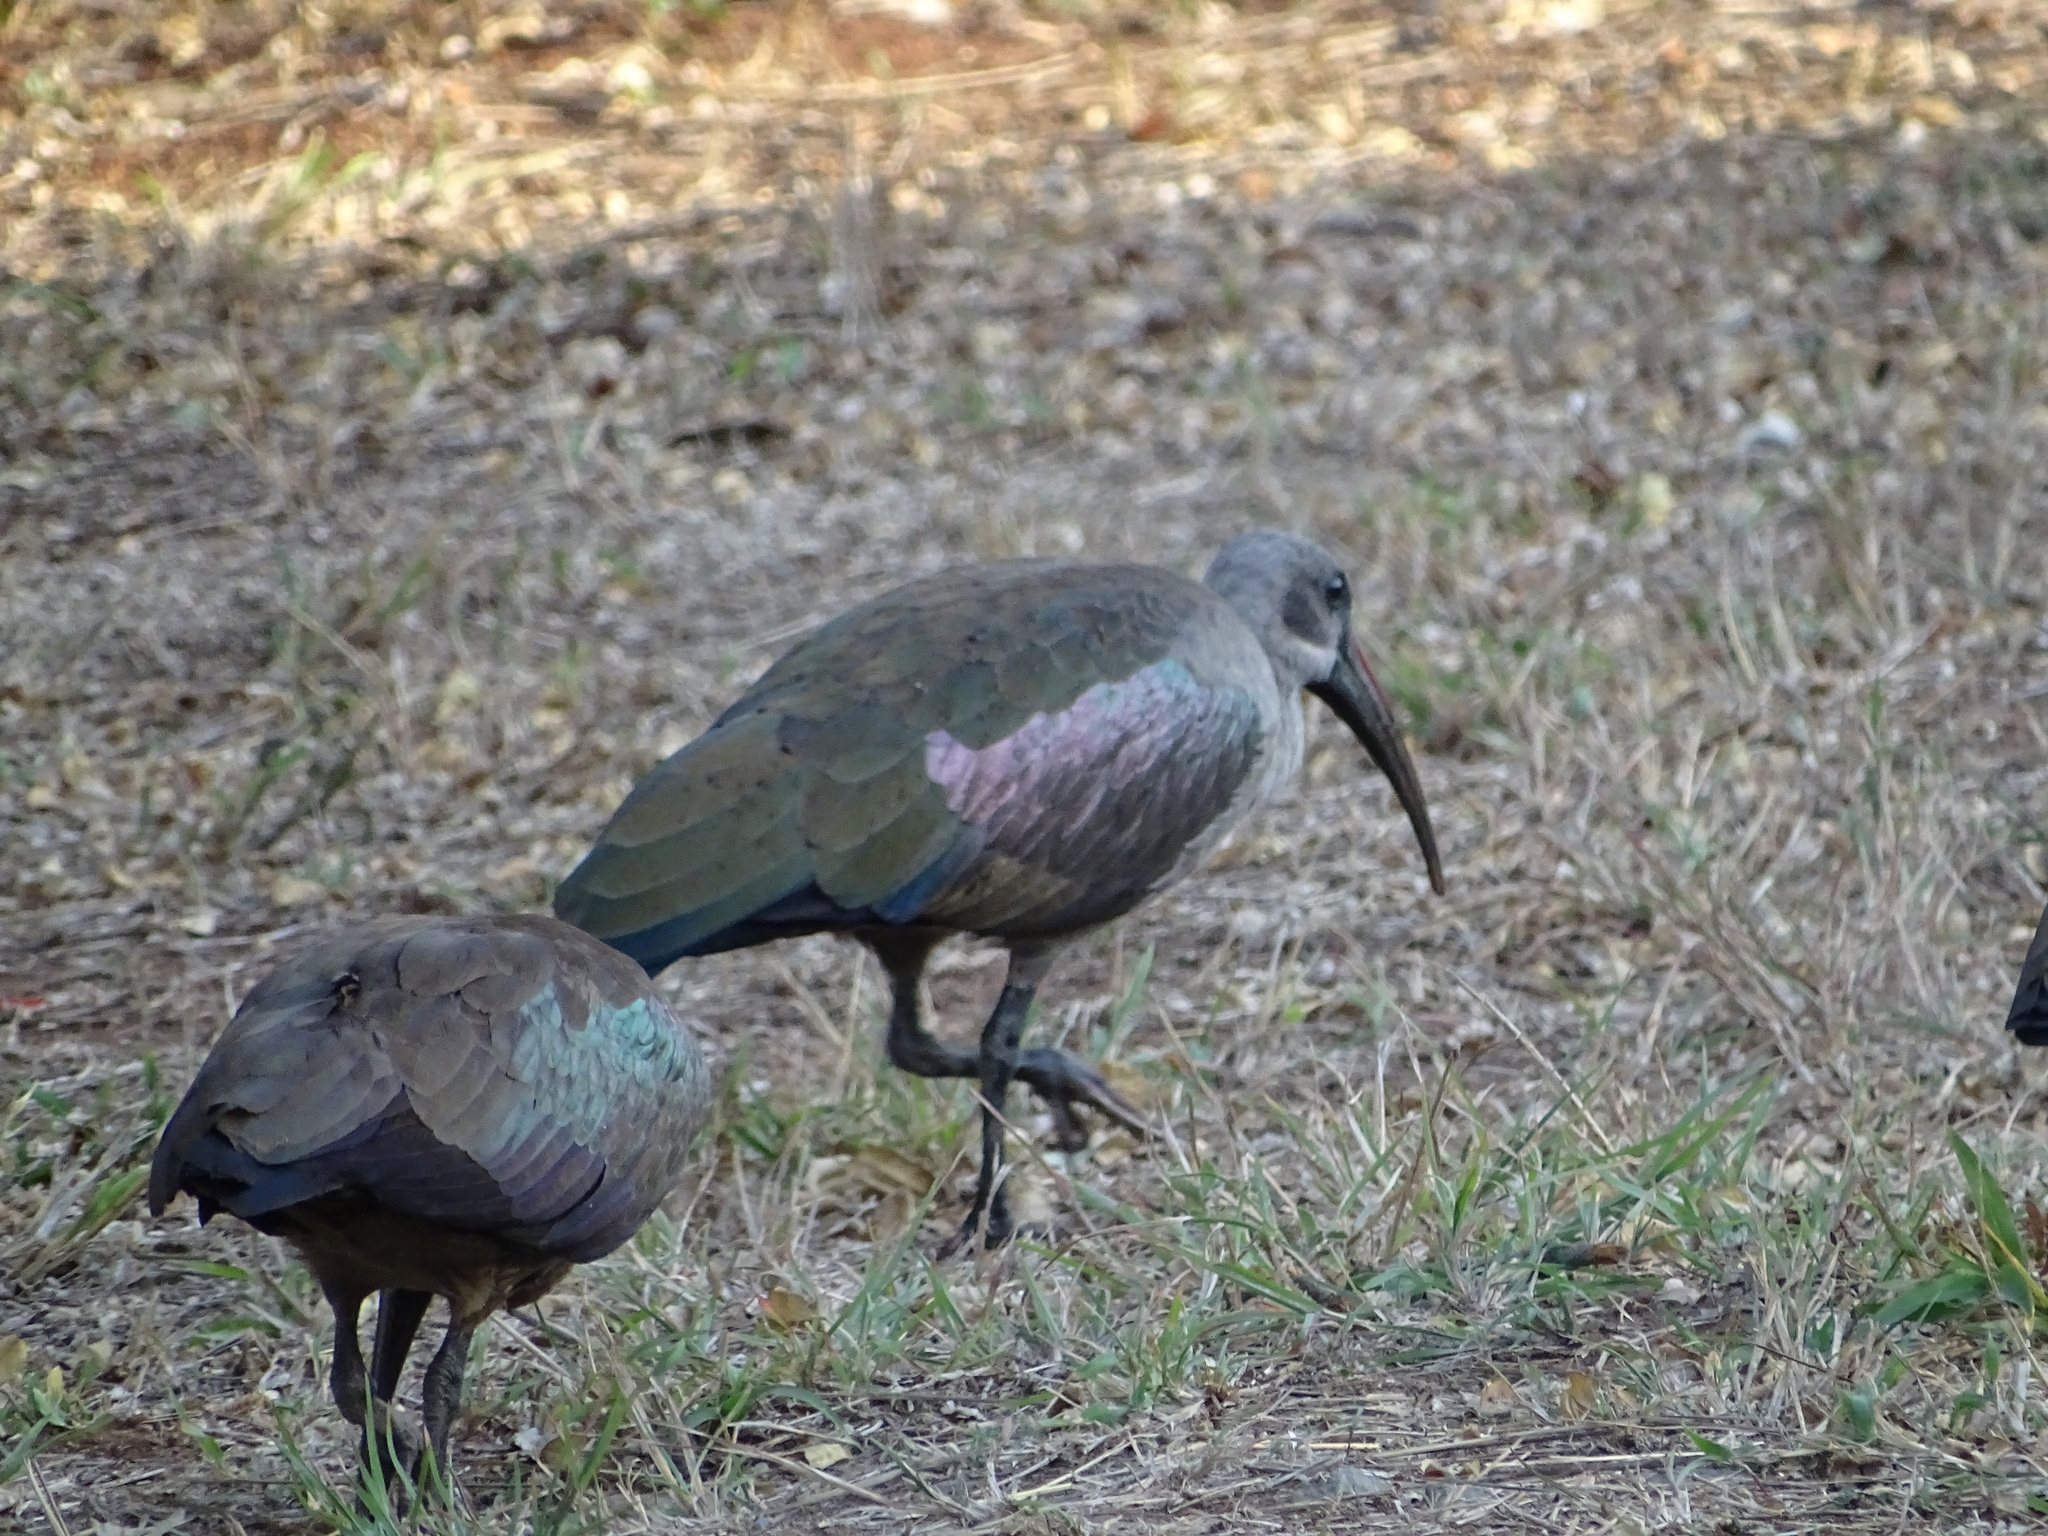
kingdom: Animalia
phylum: Chordata
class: Aves
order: Pelecaniformes
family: Threskiornithidae
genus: Bostrychia
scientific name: Bostrychia hagedash
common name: Hadada ibis
